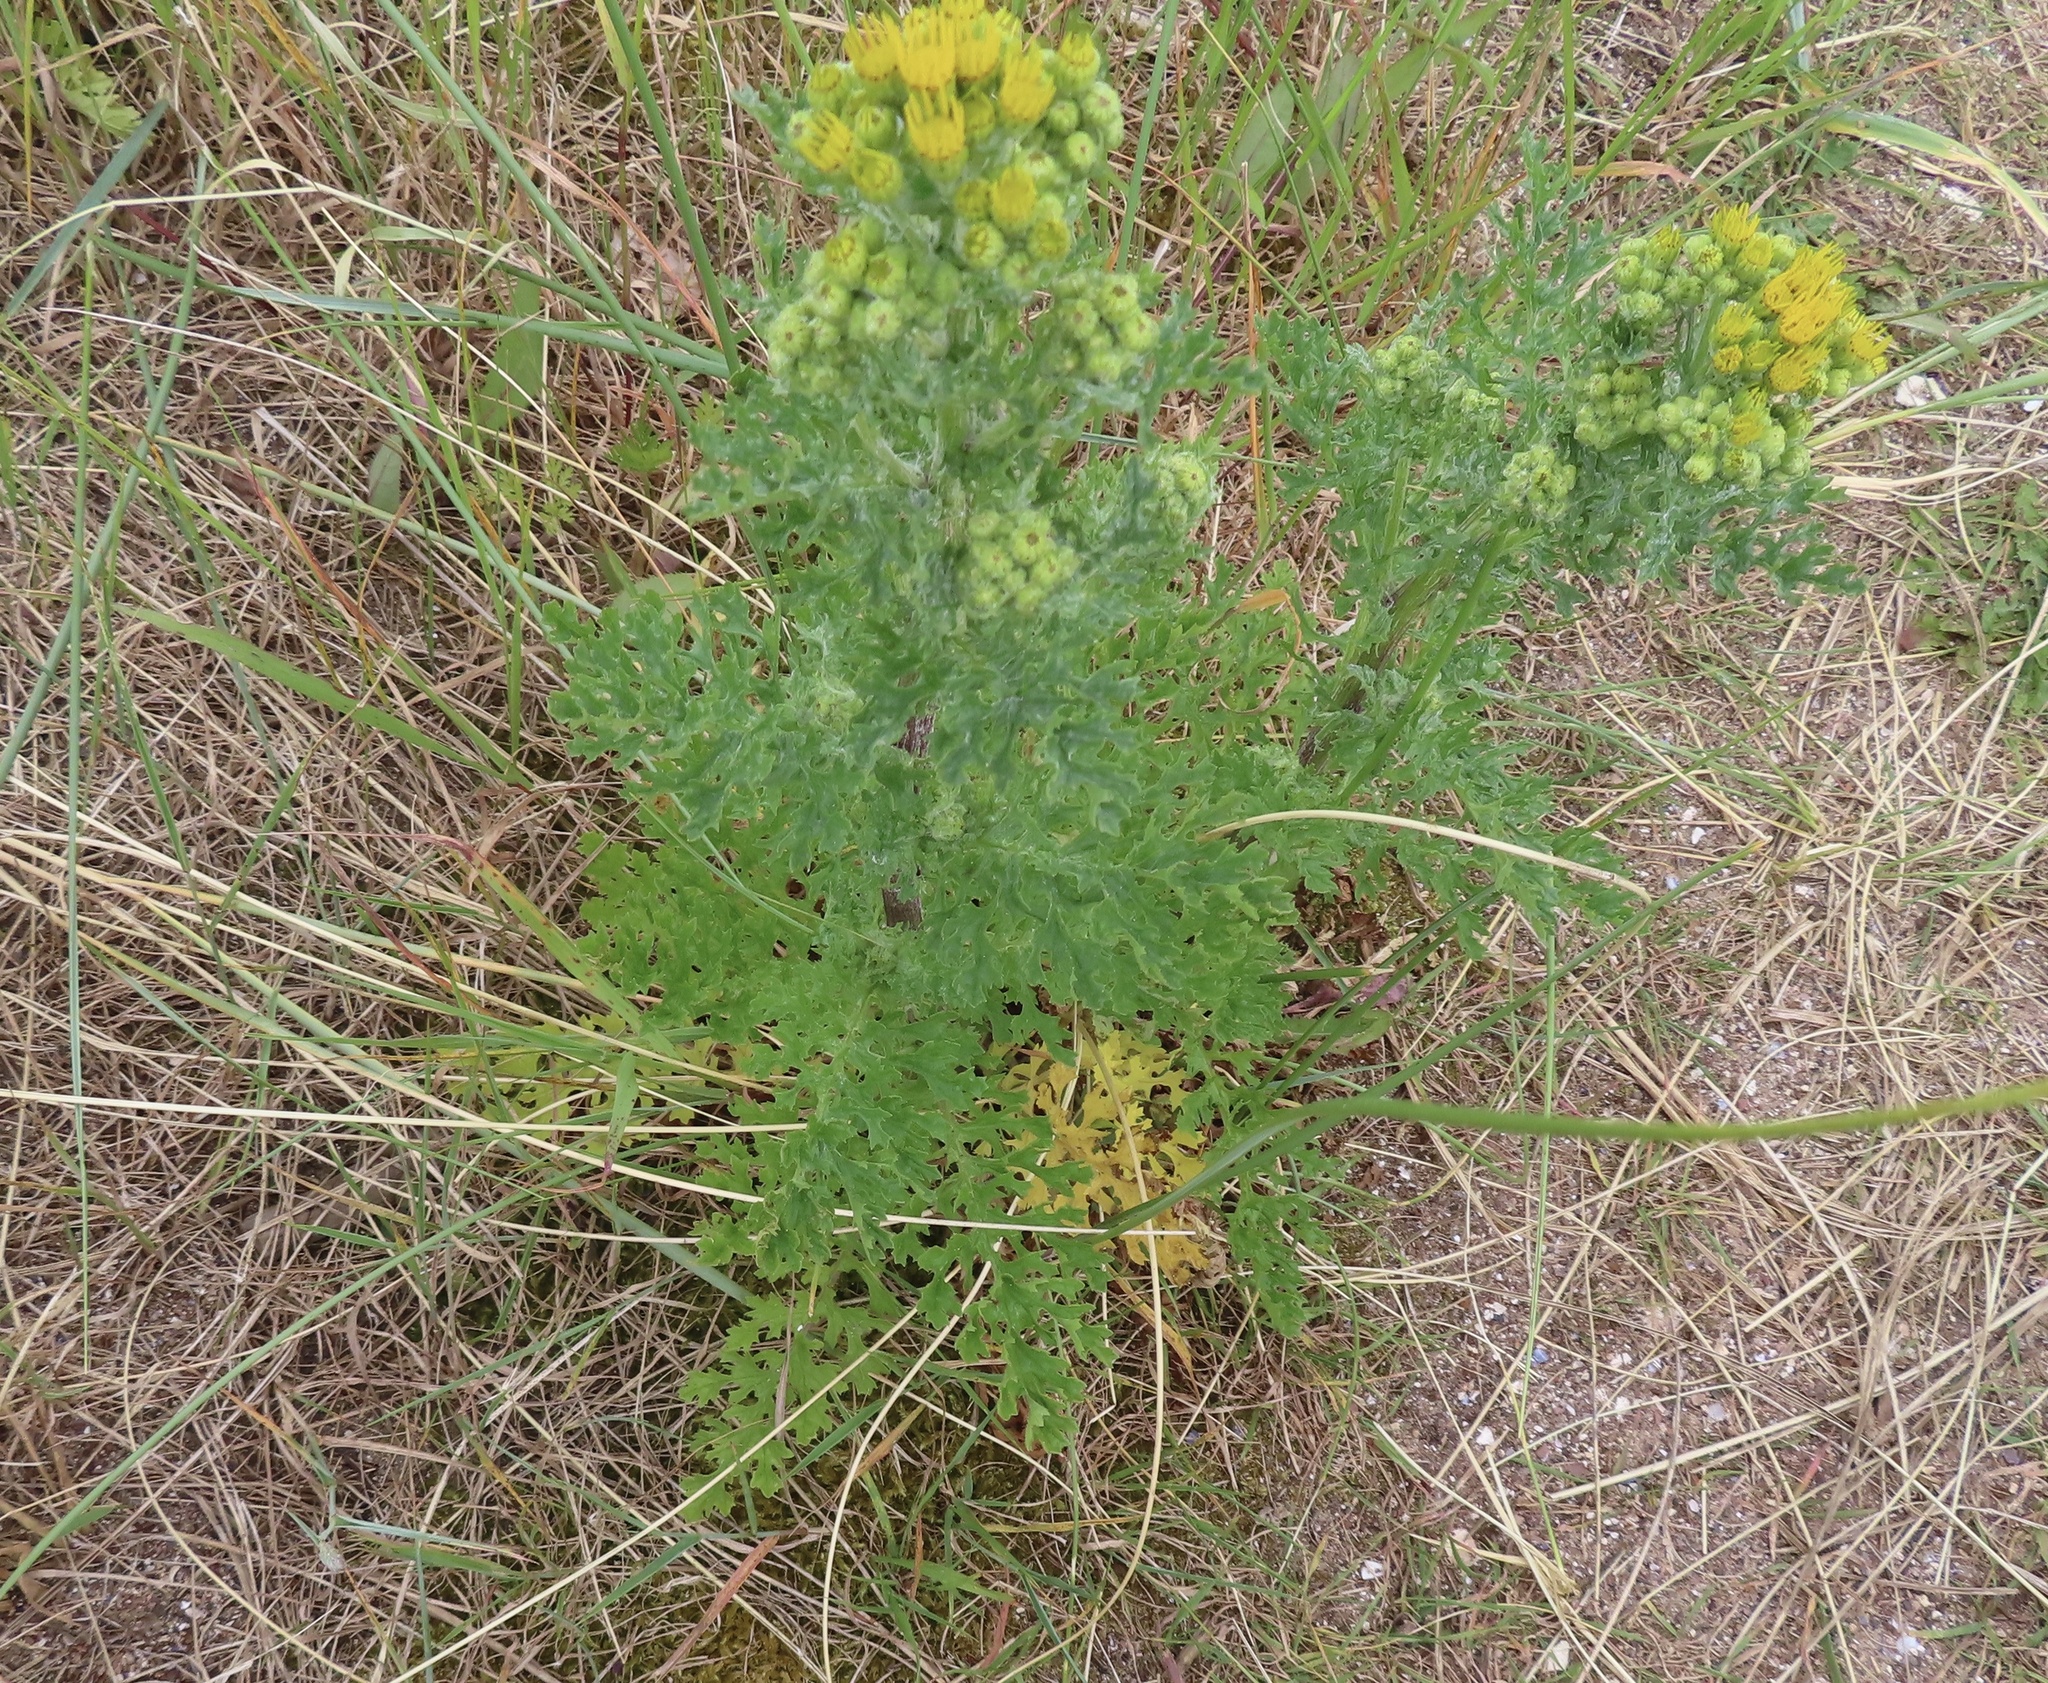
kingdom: Plantae
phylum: Tracheophyta
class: Magnoliopsida
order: Asterales
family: Asteraceae
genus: Jacobaea
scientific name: Jacobaea vulgaris
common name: Stinking willie
